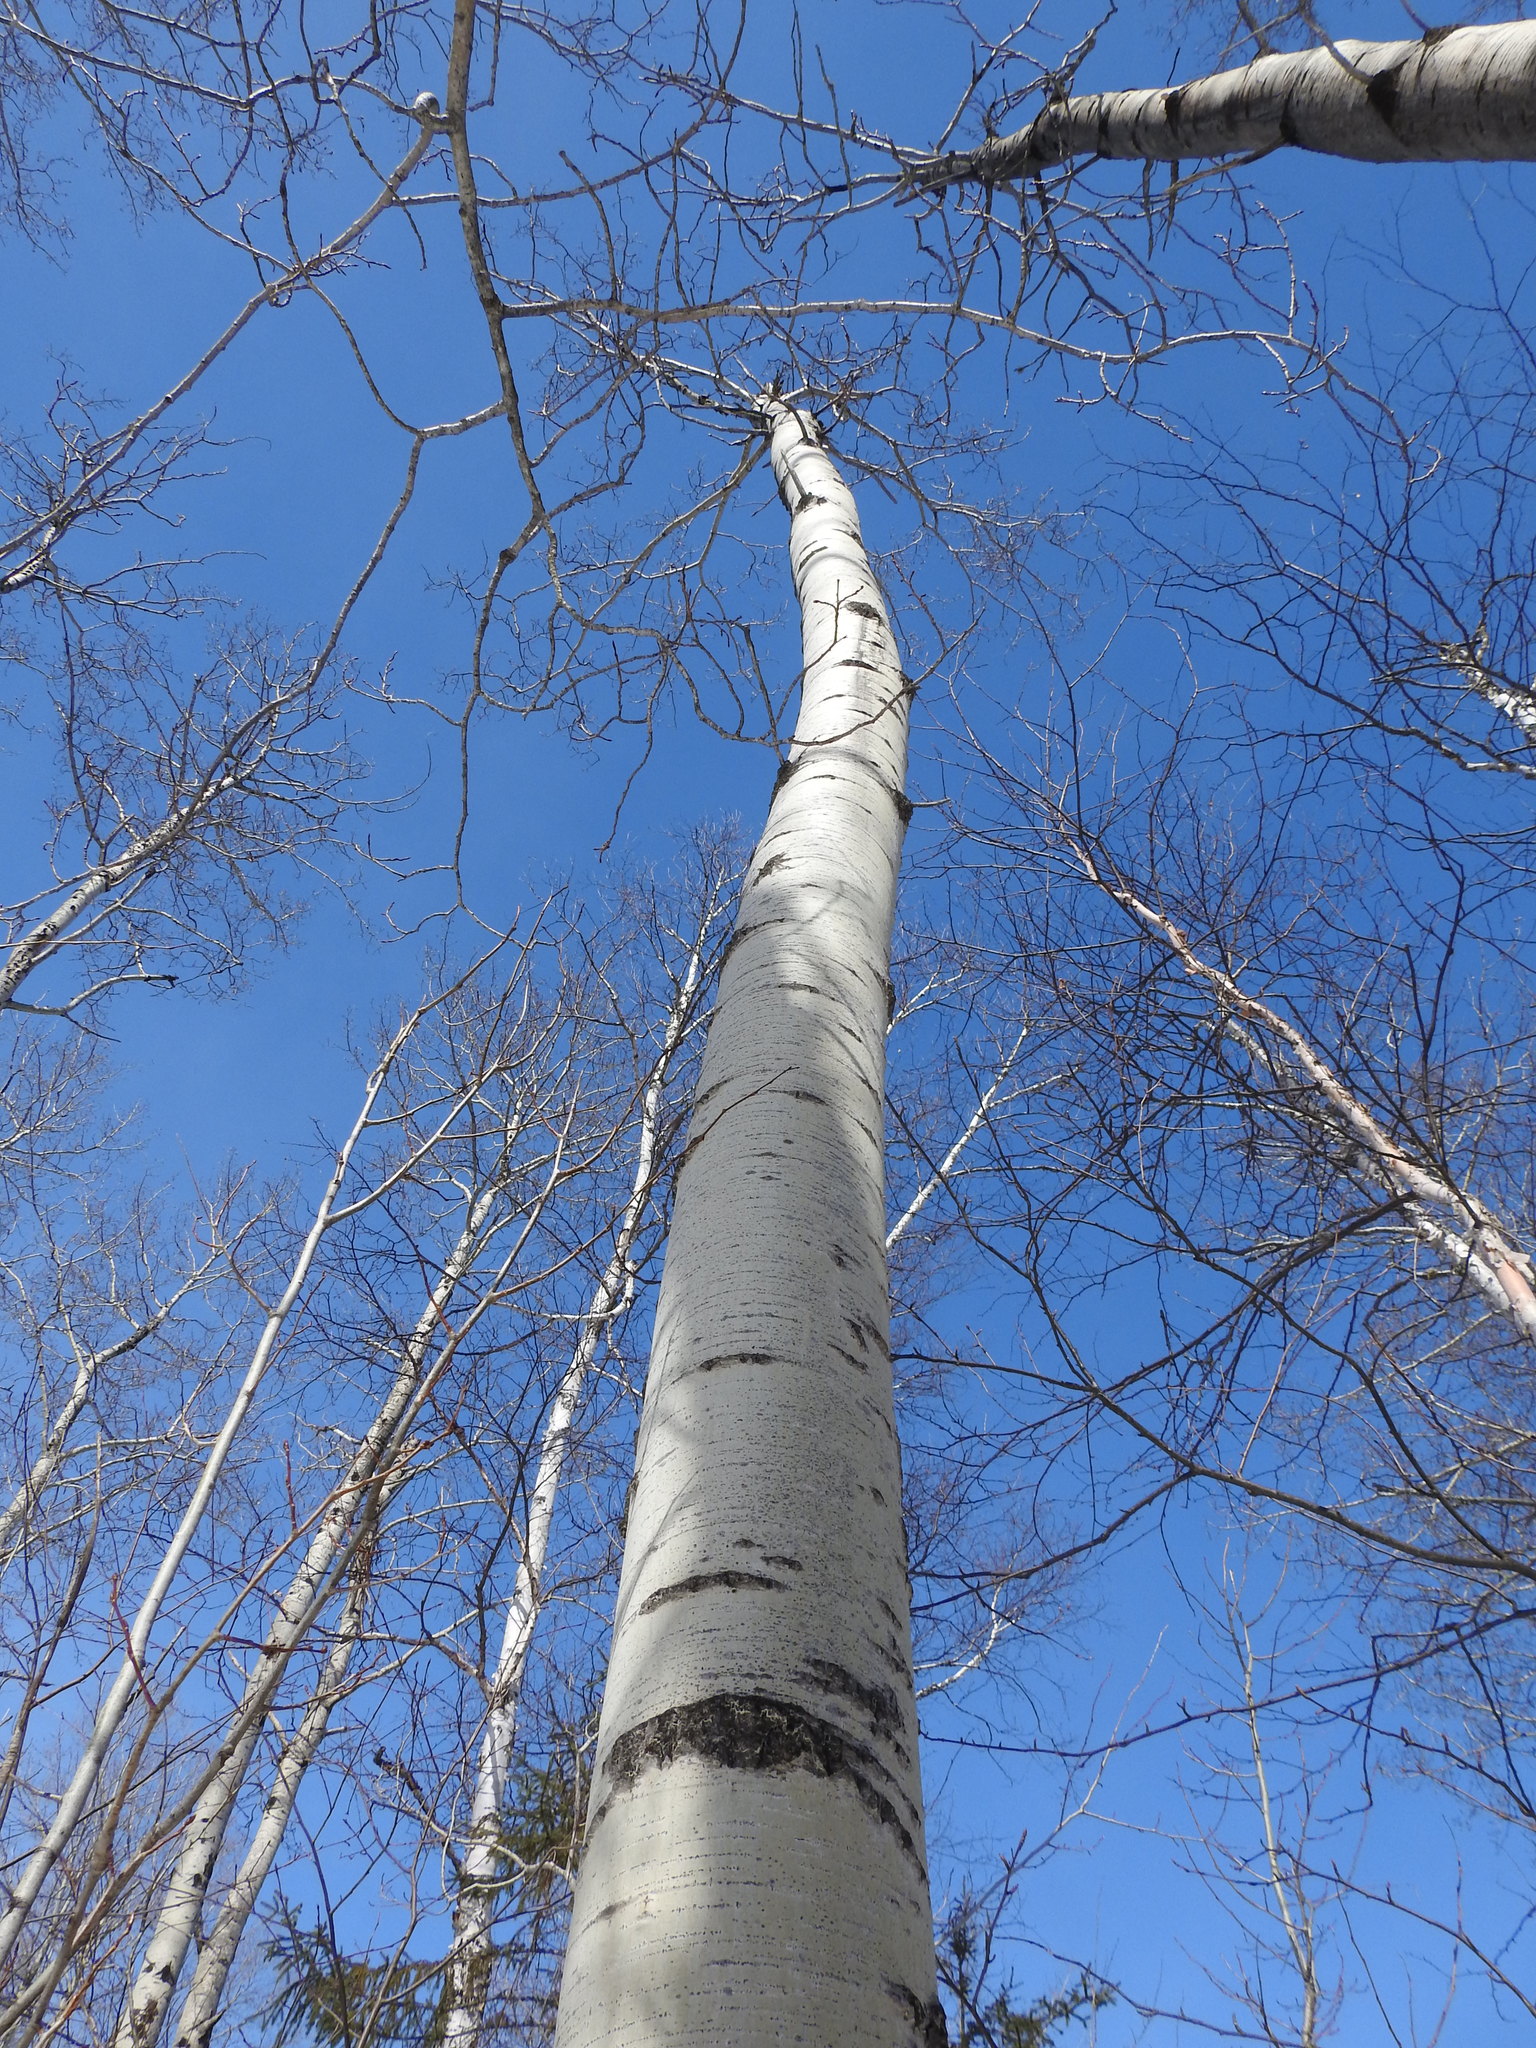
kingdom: Plantae
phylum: Tracheophyta
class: Magnoliopsida
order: Malpighiales
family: Salicaceae
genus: Populus
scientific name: Populus tremuloides
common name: Quaking aspen
